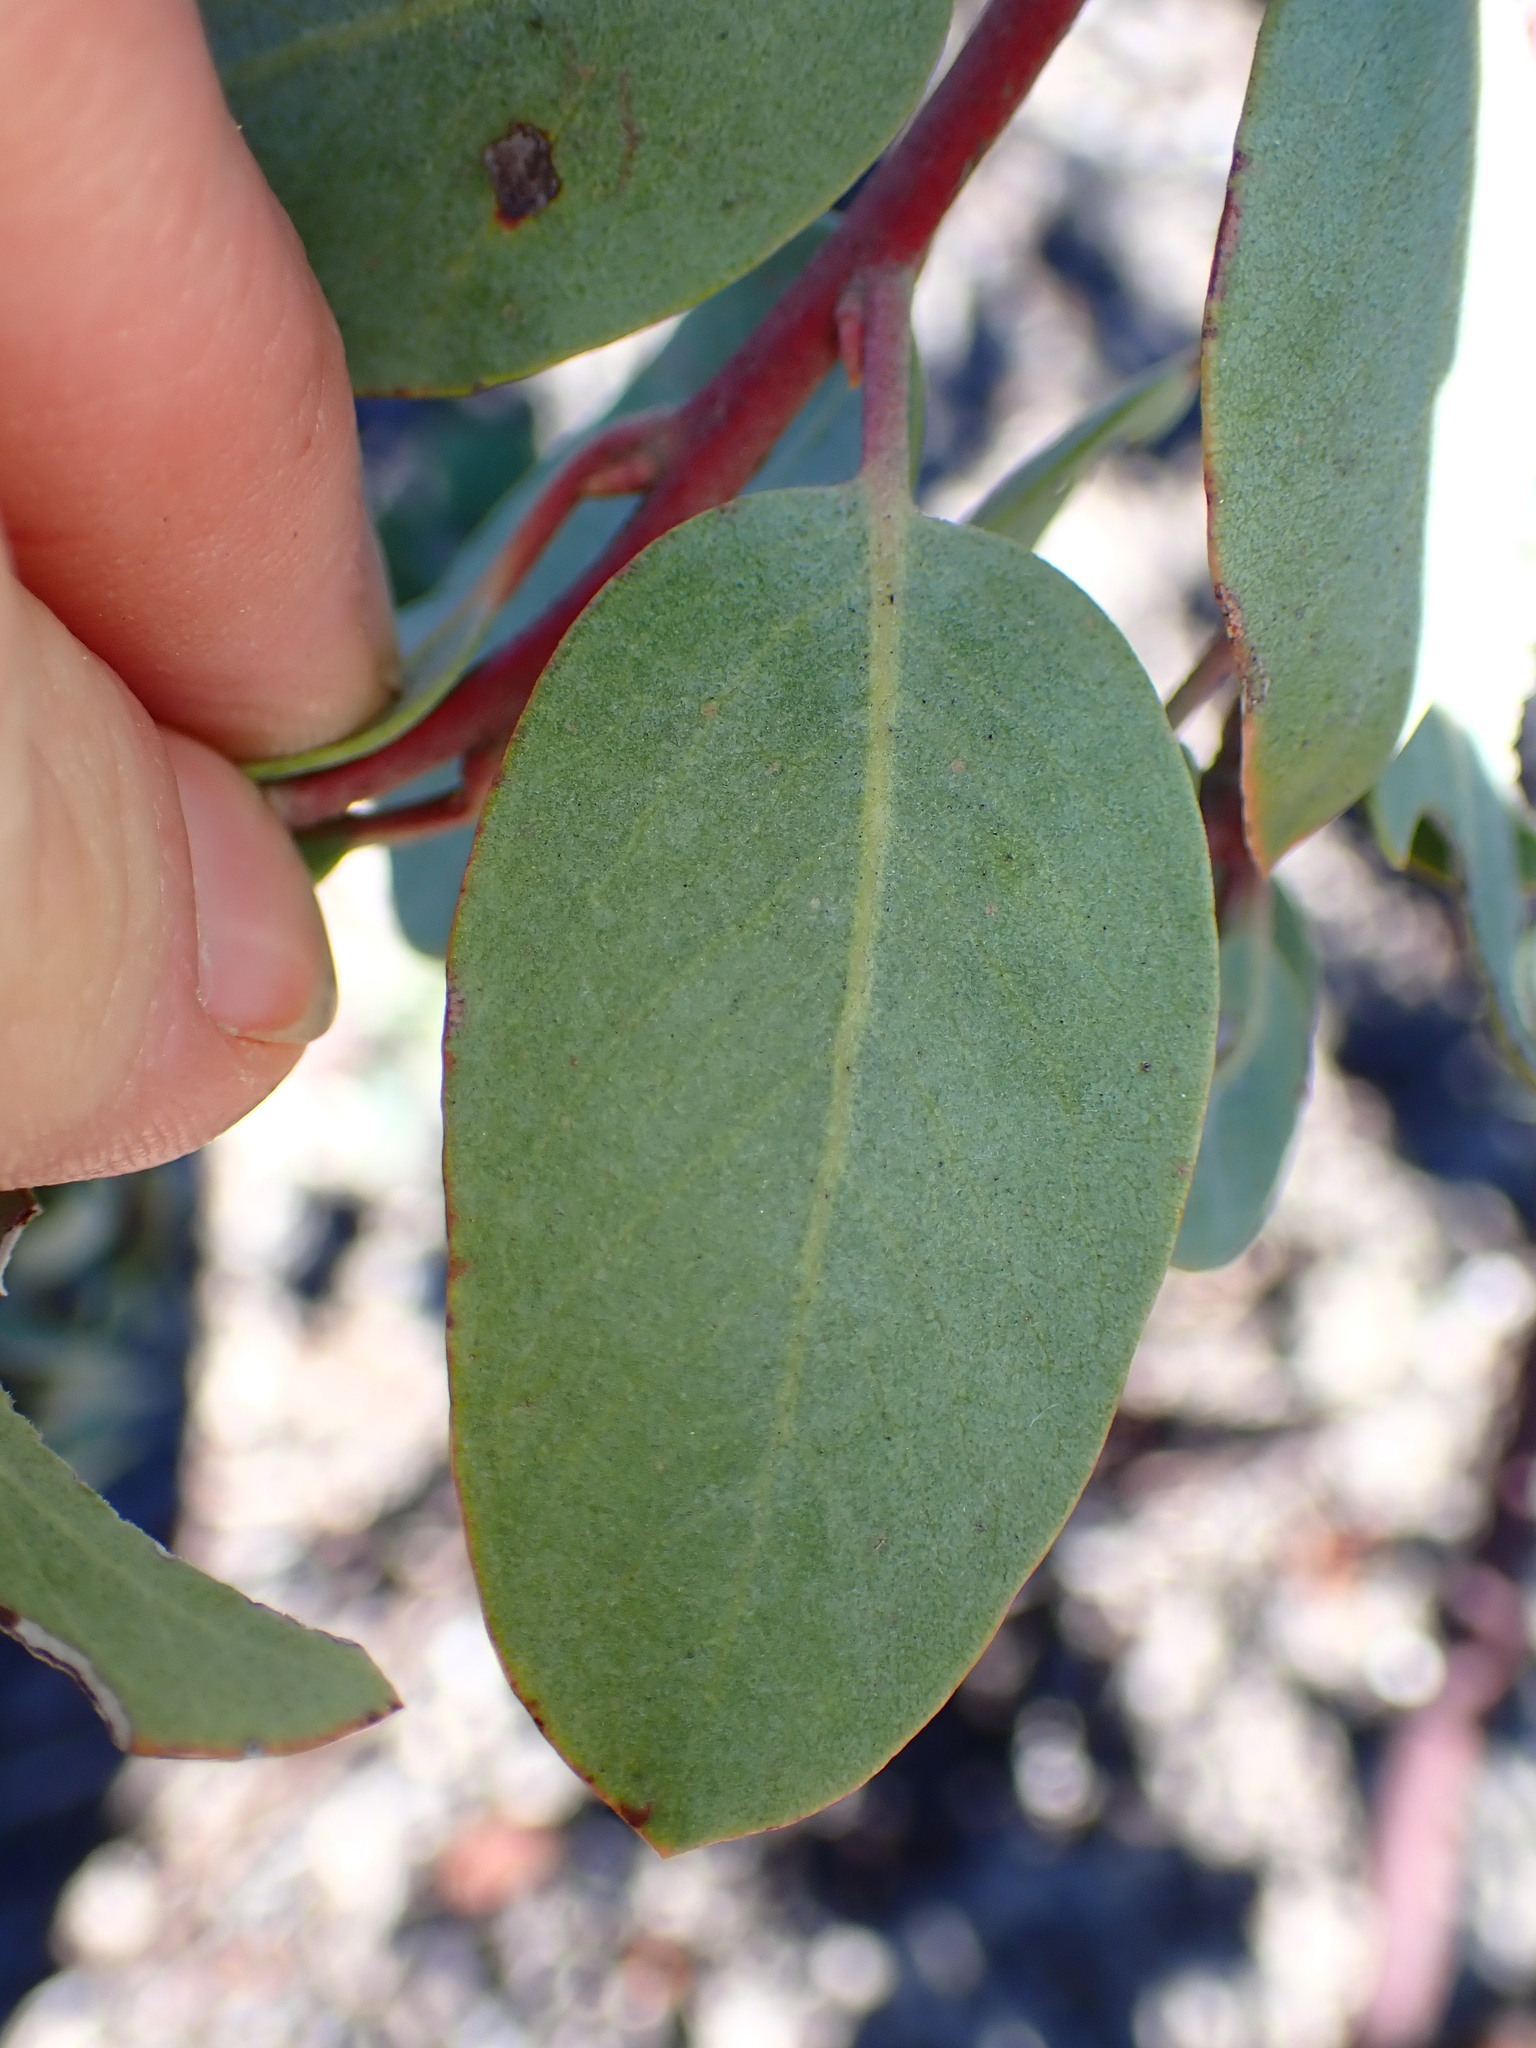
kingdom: Plantae
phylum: Tracheophyta
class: Magnoliopsida
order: Ericales
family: Ericaceae
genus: Arctostaphylos
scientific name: Arctostaphylos silvicola
